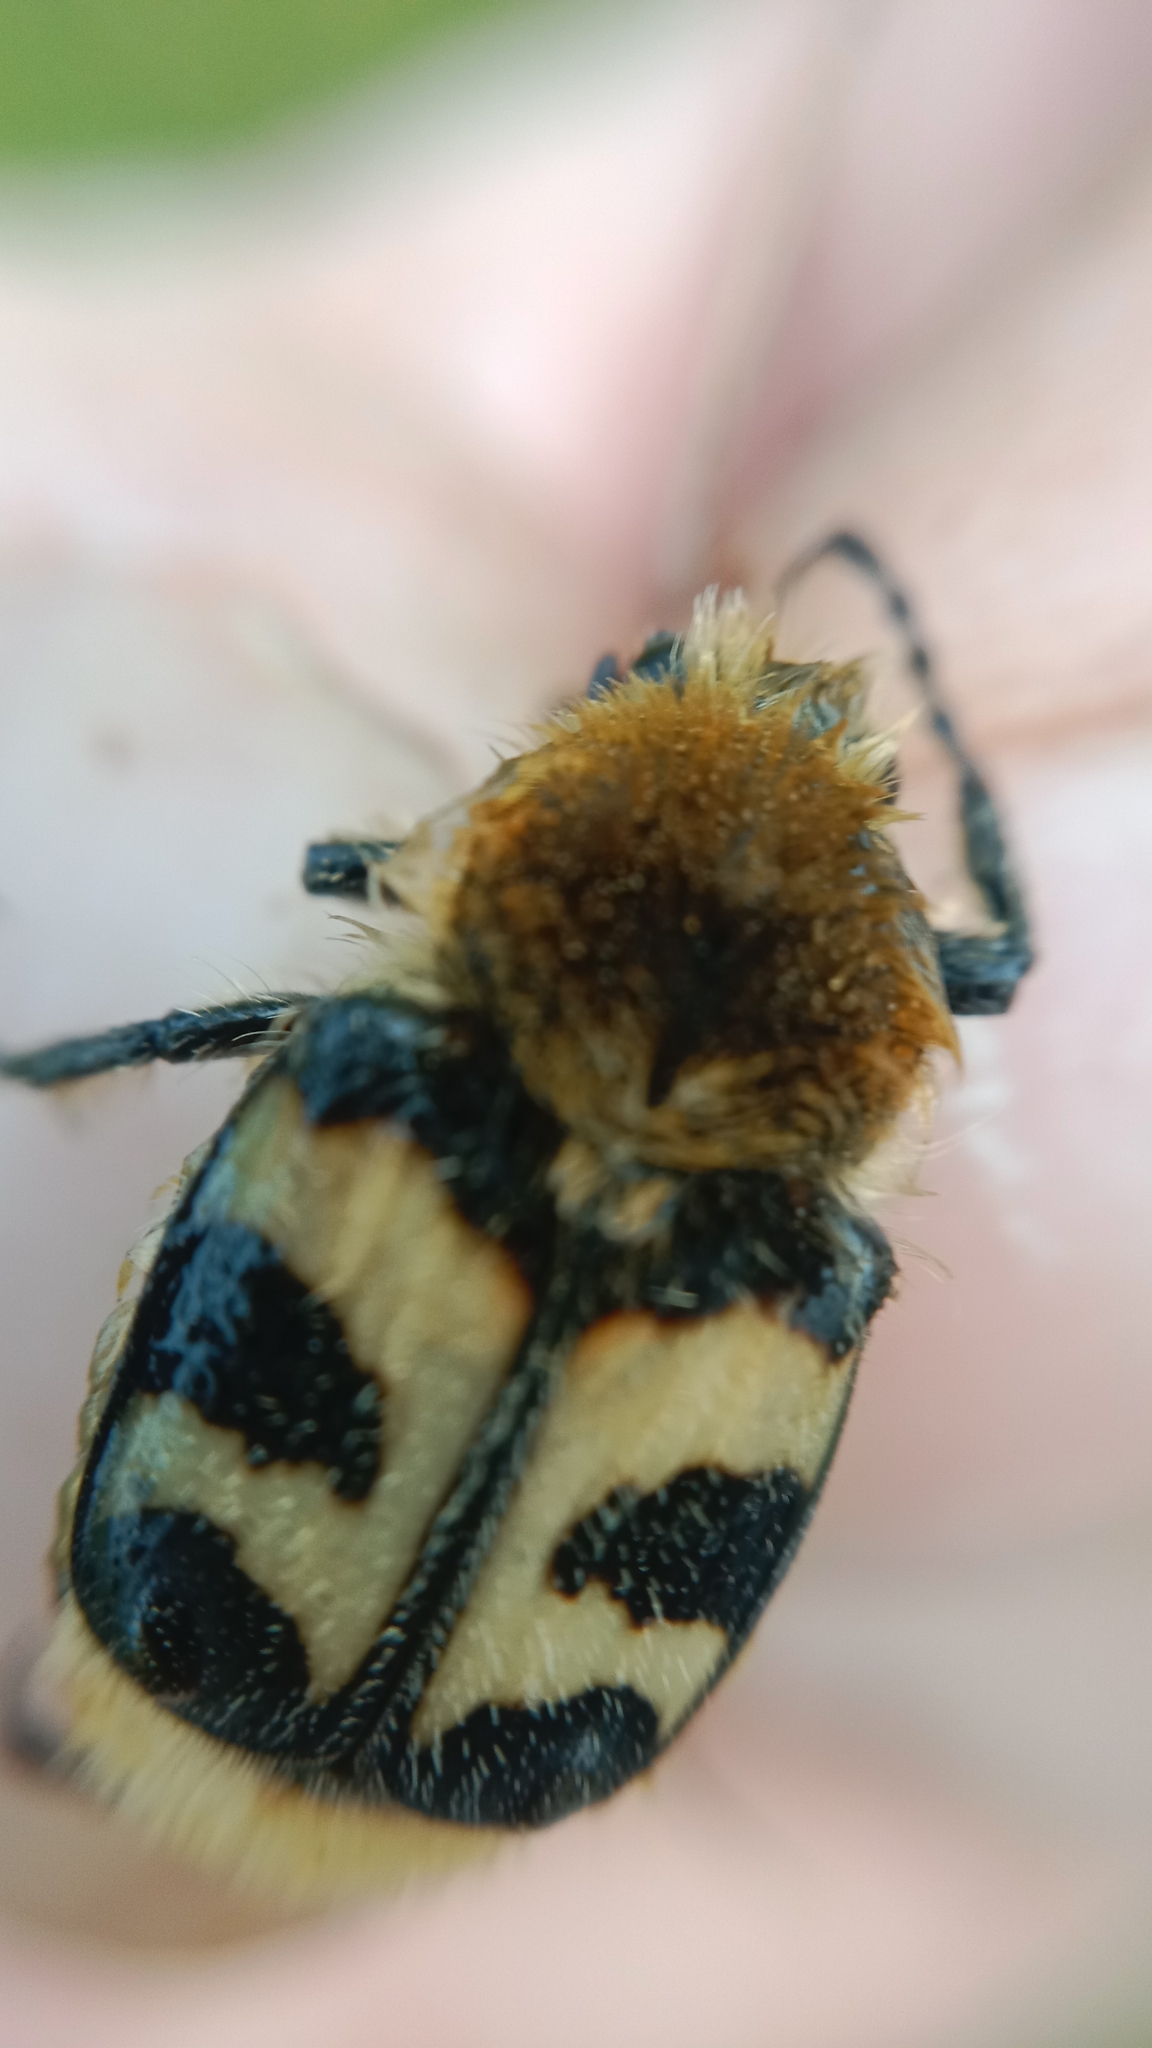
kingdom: Animalia
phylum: Arthropoda
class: Insecta
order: Coleoptera
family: Scarabaeidae
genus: Trichius
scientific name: Trichius fasciatus
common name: Bee beetle
